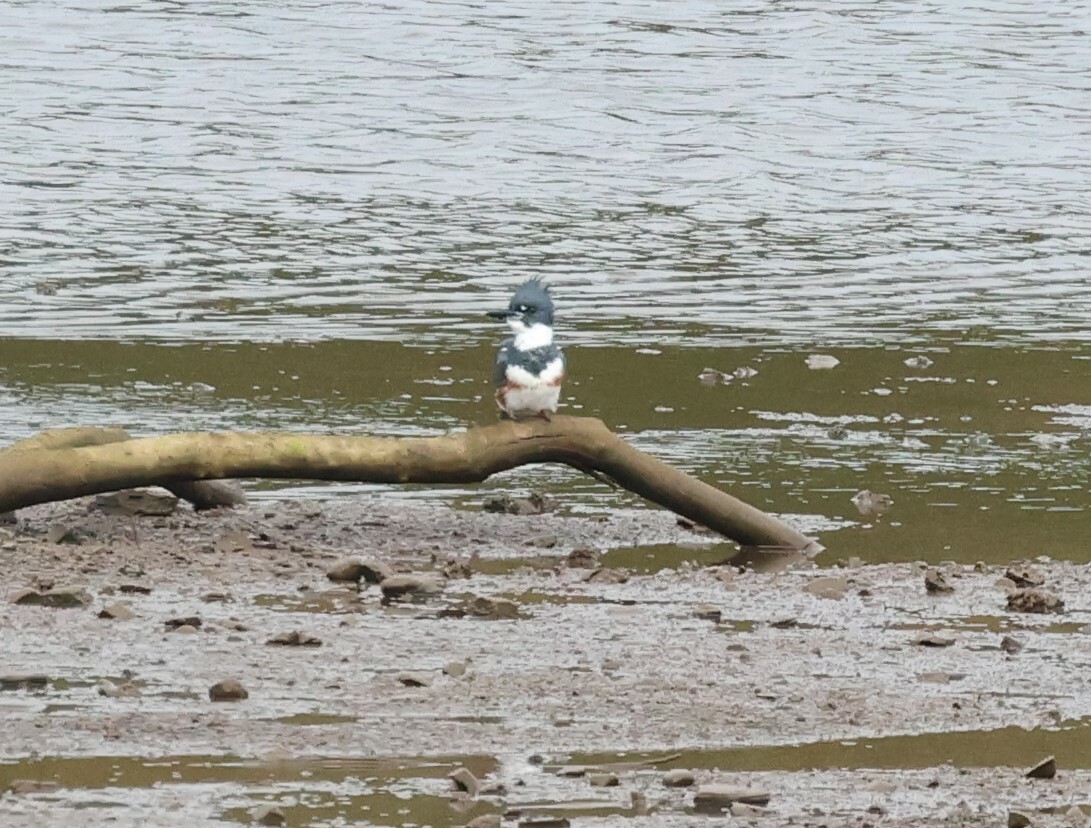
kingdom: Animalia
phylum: Chordata
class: Aves
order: Coraciiformes
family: Alcedinidae
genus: Megaceryle
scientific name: Megaceryle alcyon
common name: Belted kingfisher
